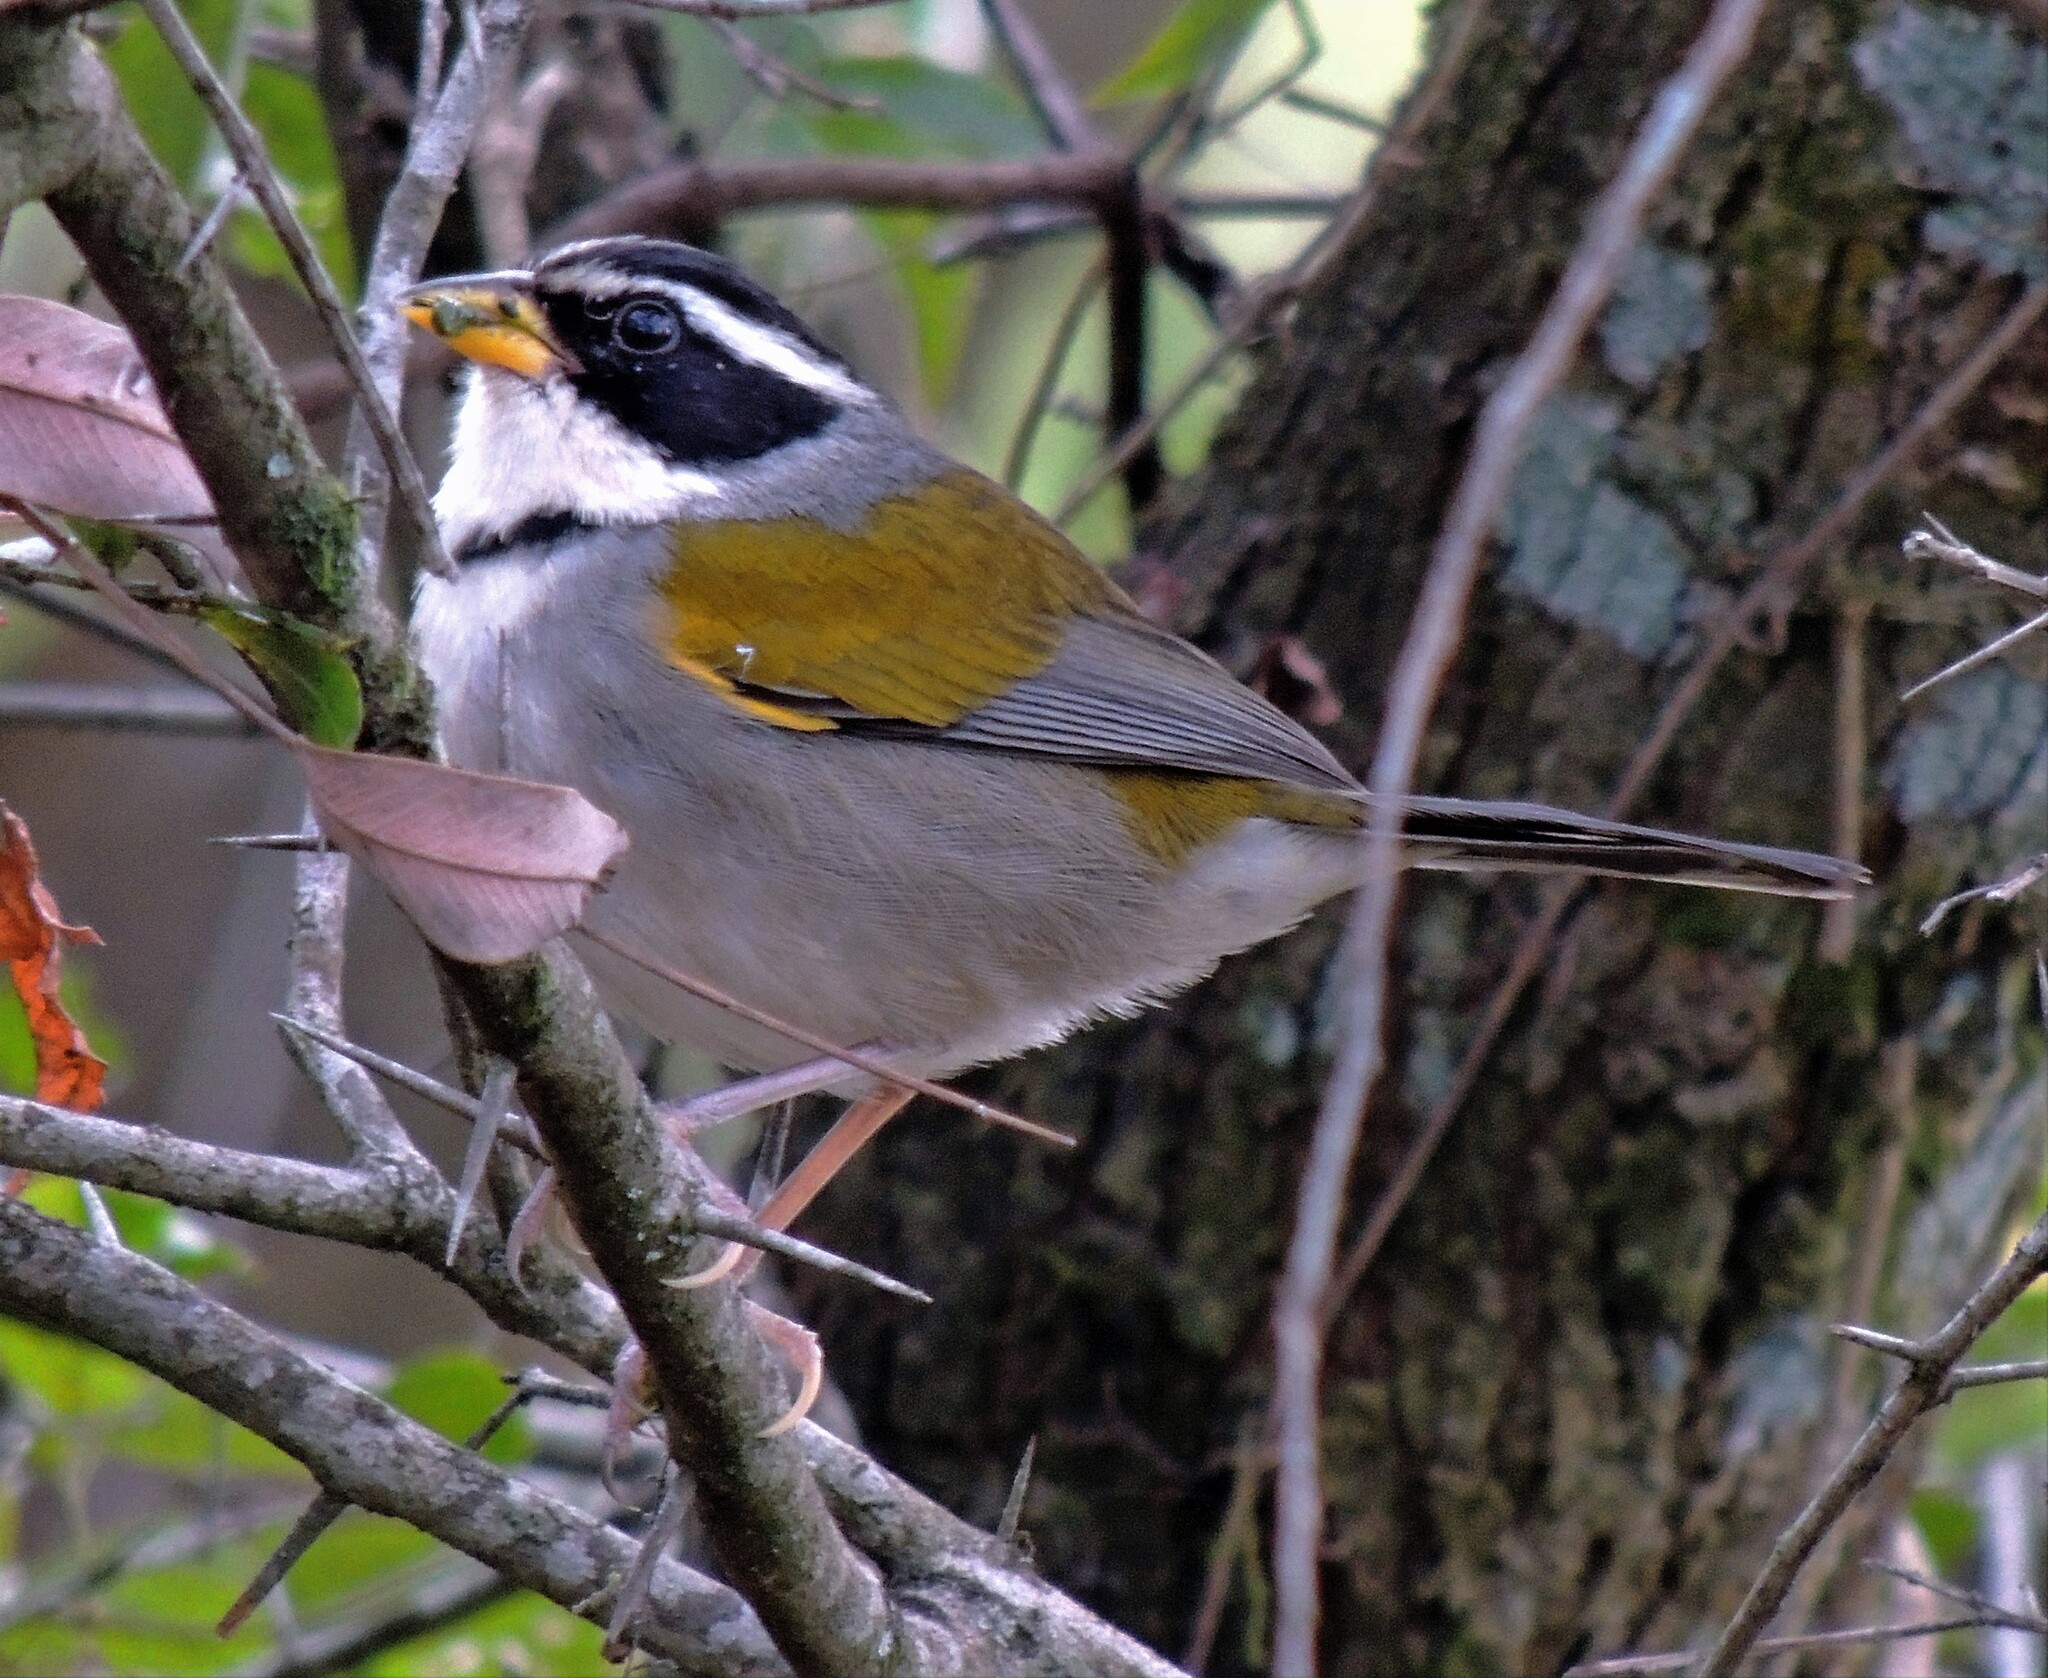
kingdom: Animalia
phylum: Chordata
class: Aves
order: Passeriformes
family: Passerellidae
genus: Arremon
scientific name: Arremon dorbignii
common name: Moss-backed sparrow
